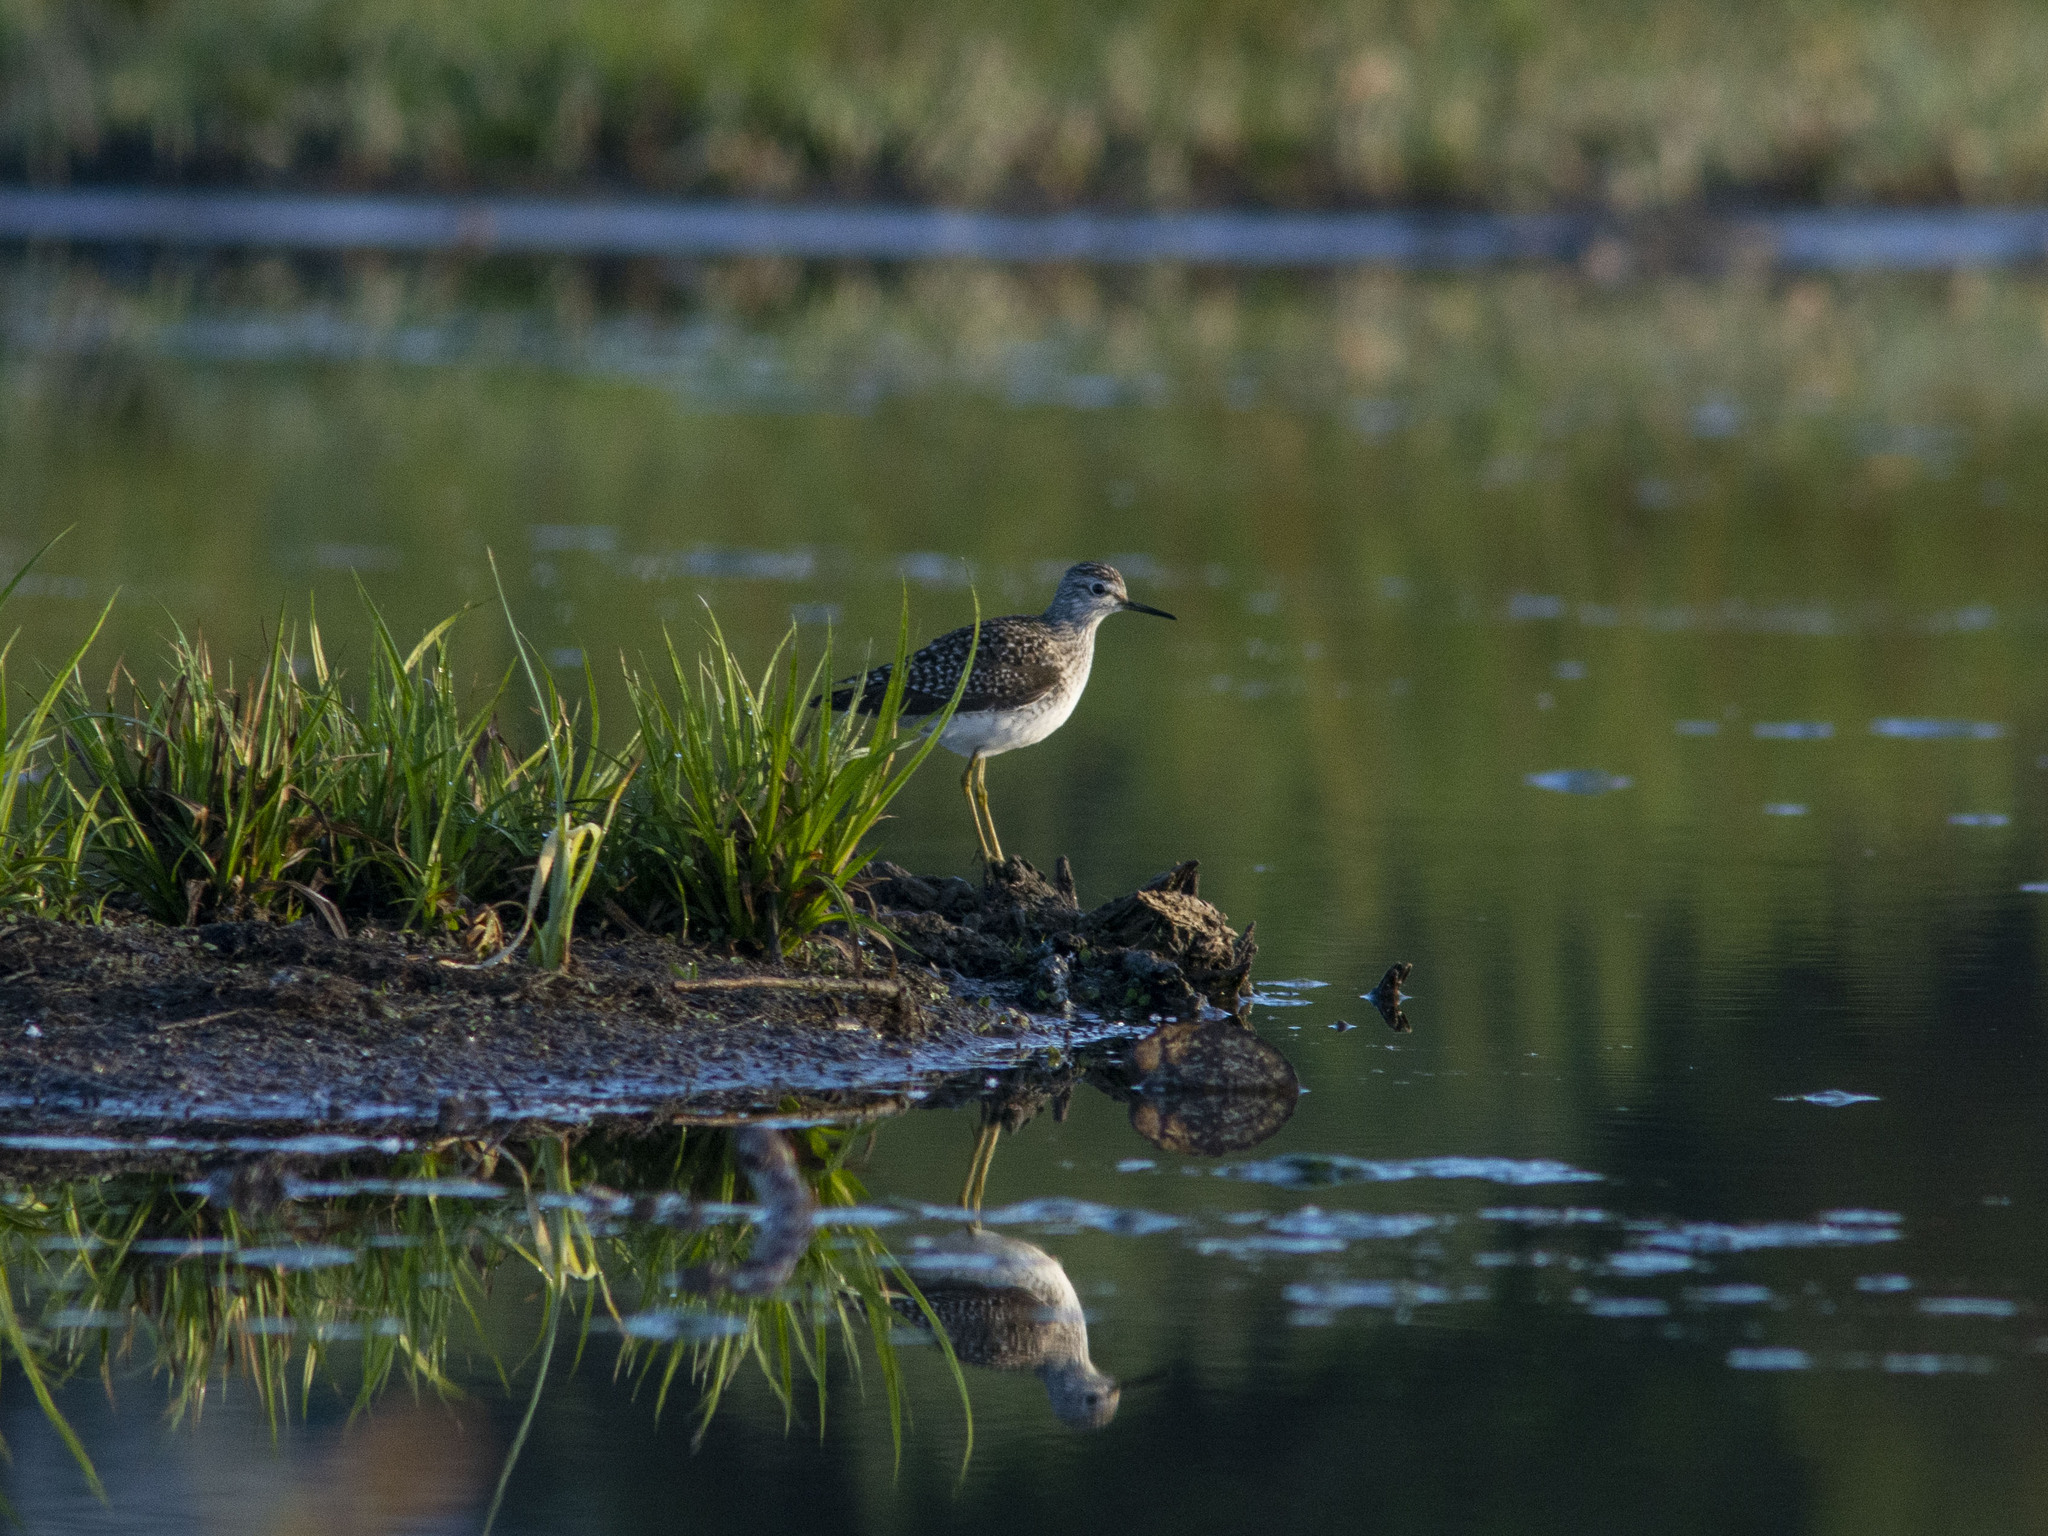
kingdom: Animalia
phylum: Chordata
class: Aves
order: Charadriiformes
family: Scolopacidae
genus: Tringa
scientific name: Tringa glareola
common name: Wood sandpiper
